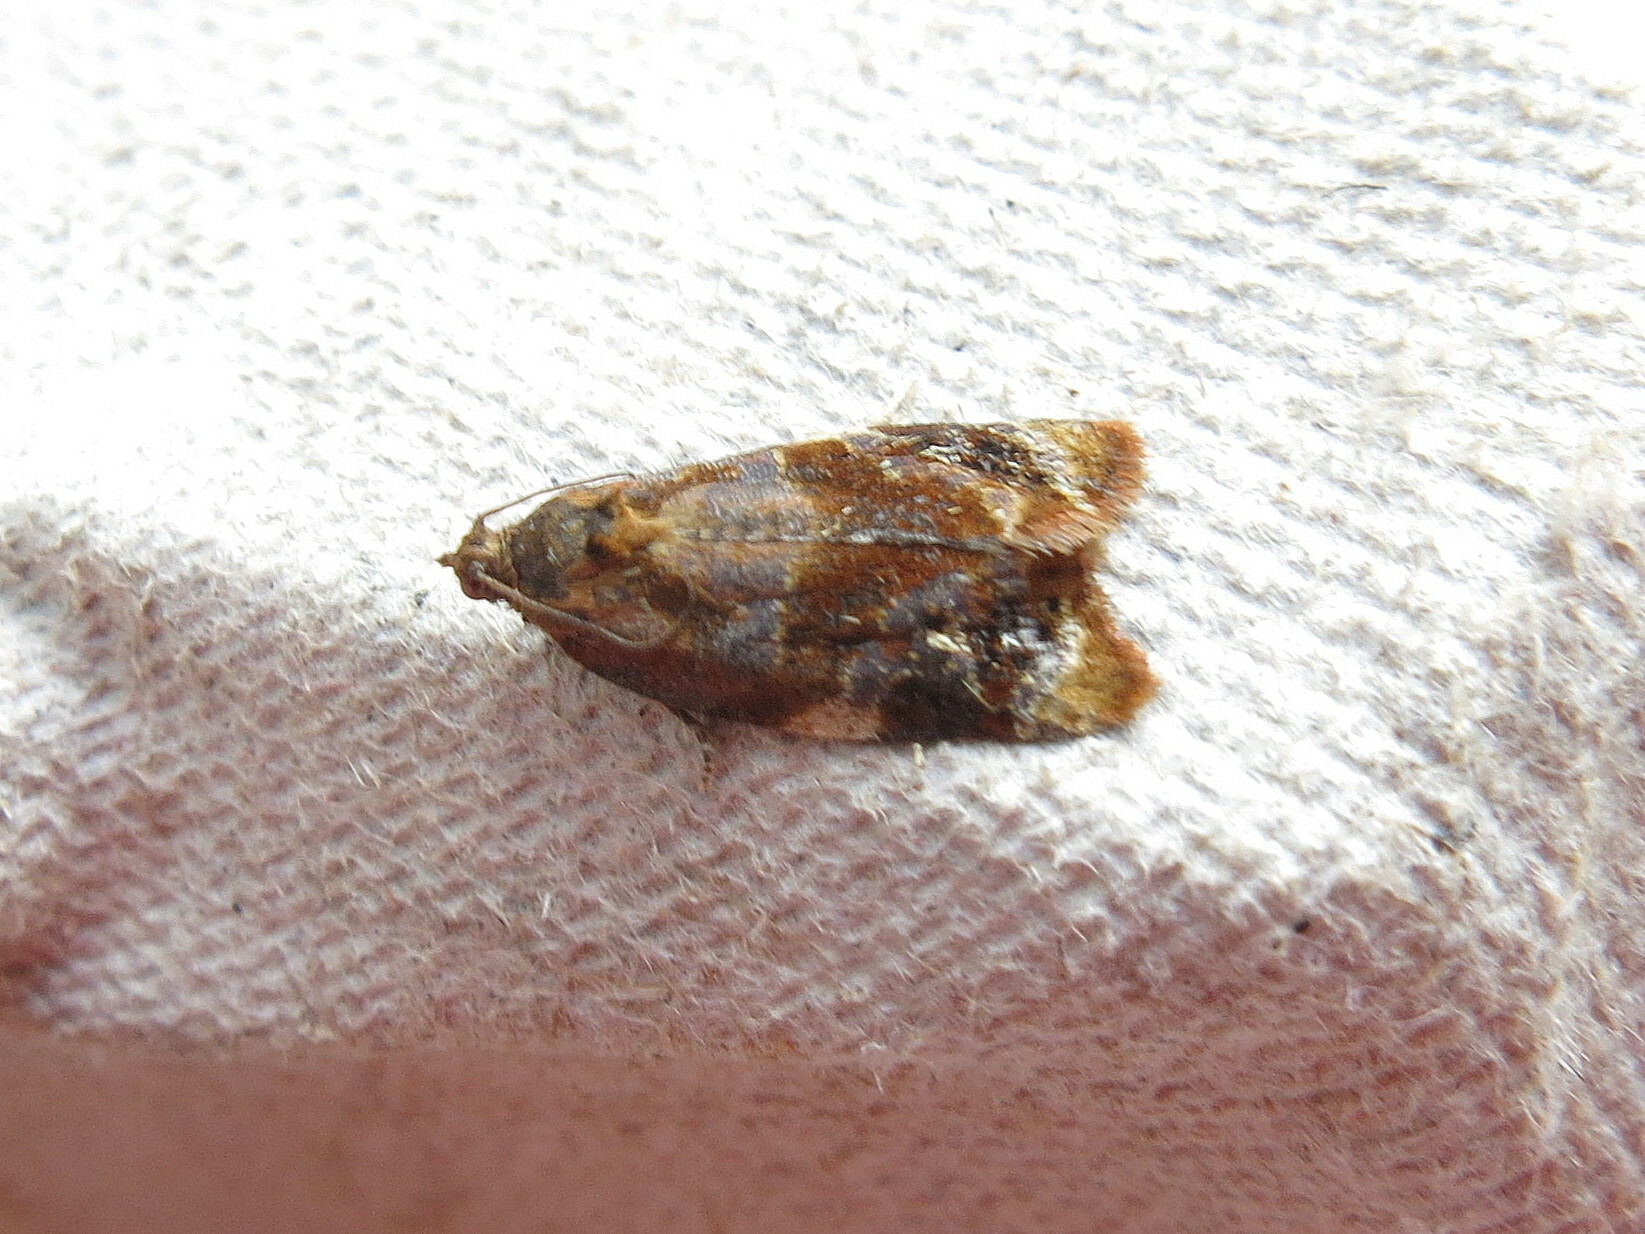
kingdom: Animalia
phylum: Arthropoda
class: Insecta
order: Lepidoptera
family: Tortricidae
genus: Ditula
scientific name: Ditula angustiorana
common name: Red-barred tortrix
